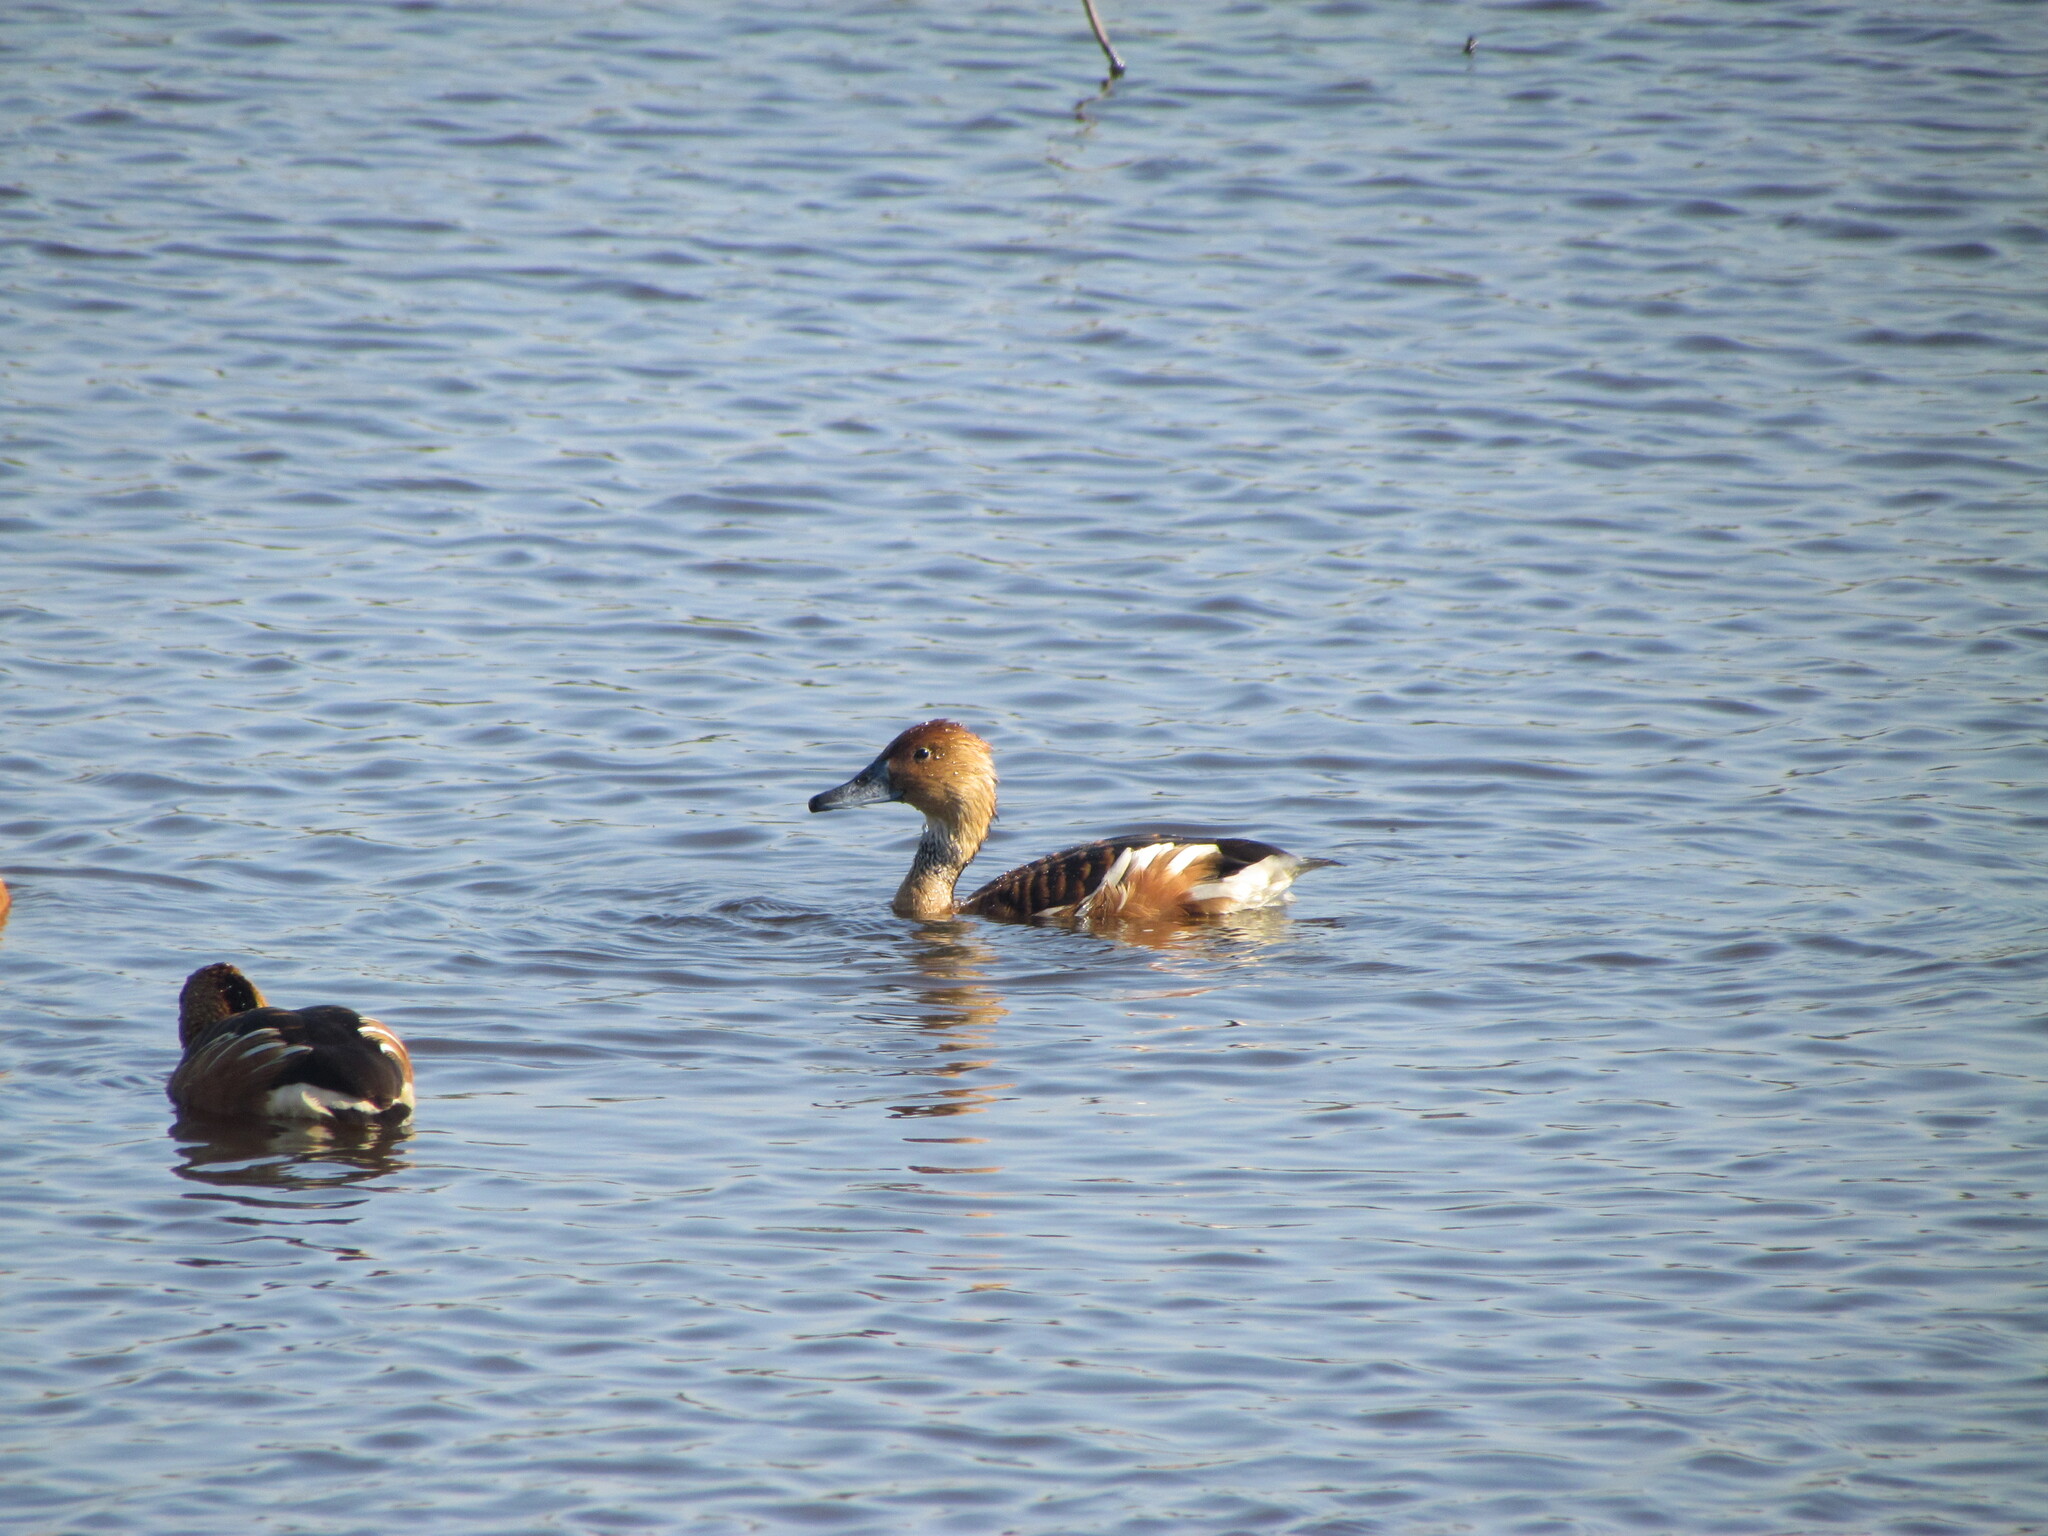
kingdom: Animalia
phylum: Chordata
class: Aves
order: Anseriformes
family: Anatidae
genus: Dendrocygna
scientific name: Dendrocygna bicolor
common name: Fulvous whistling duck
